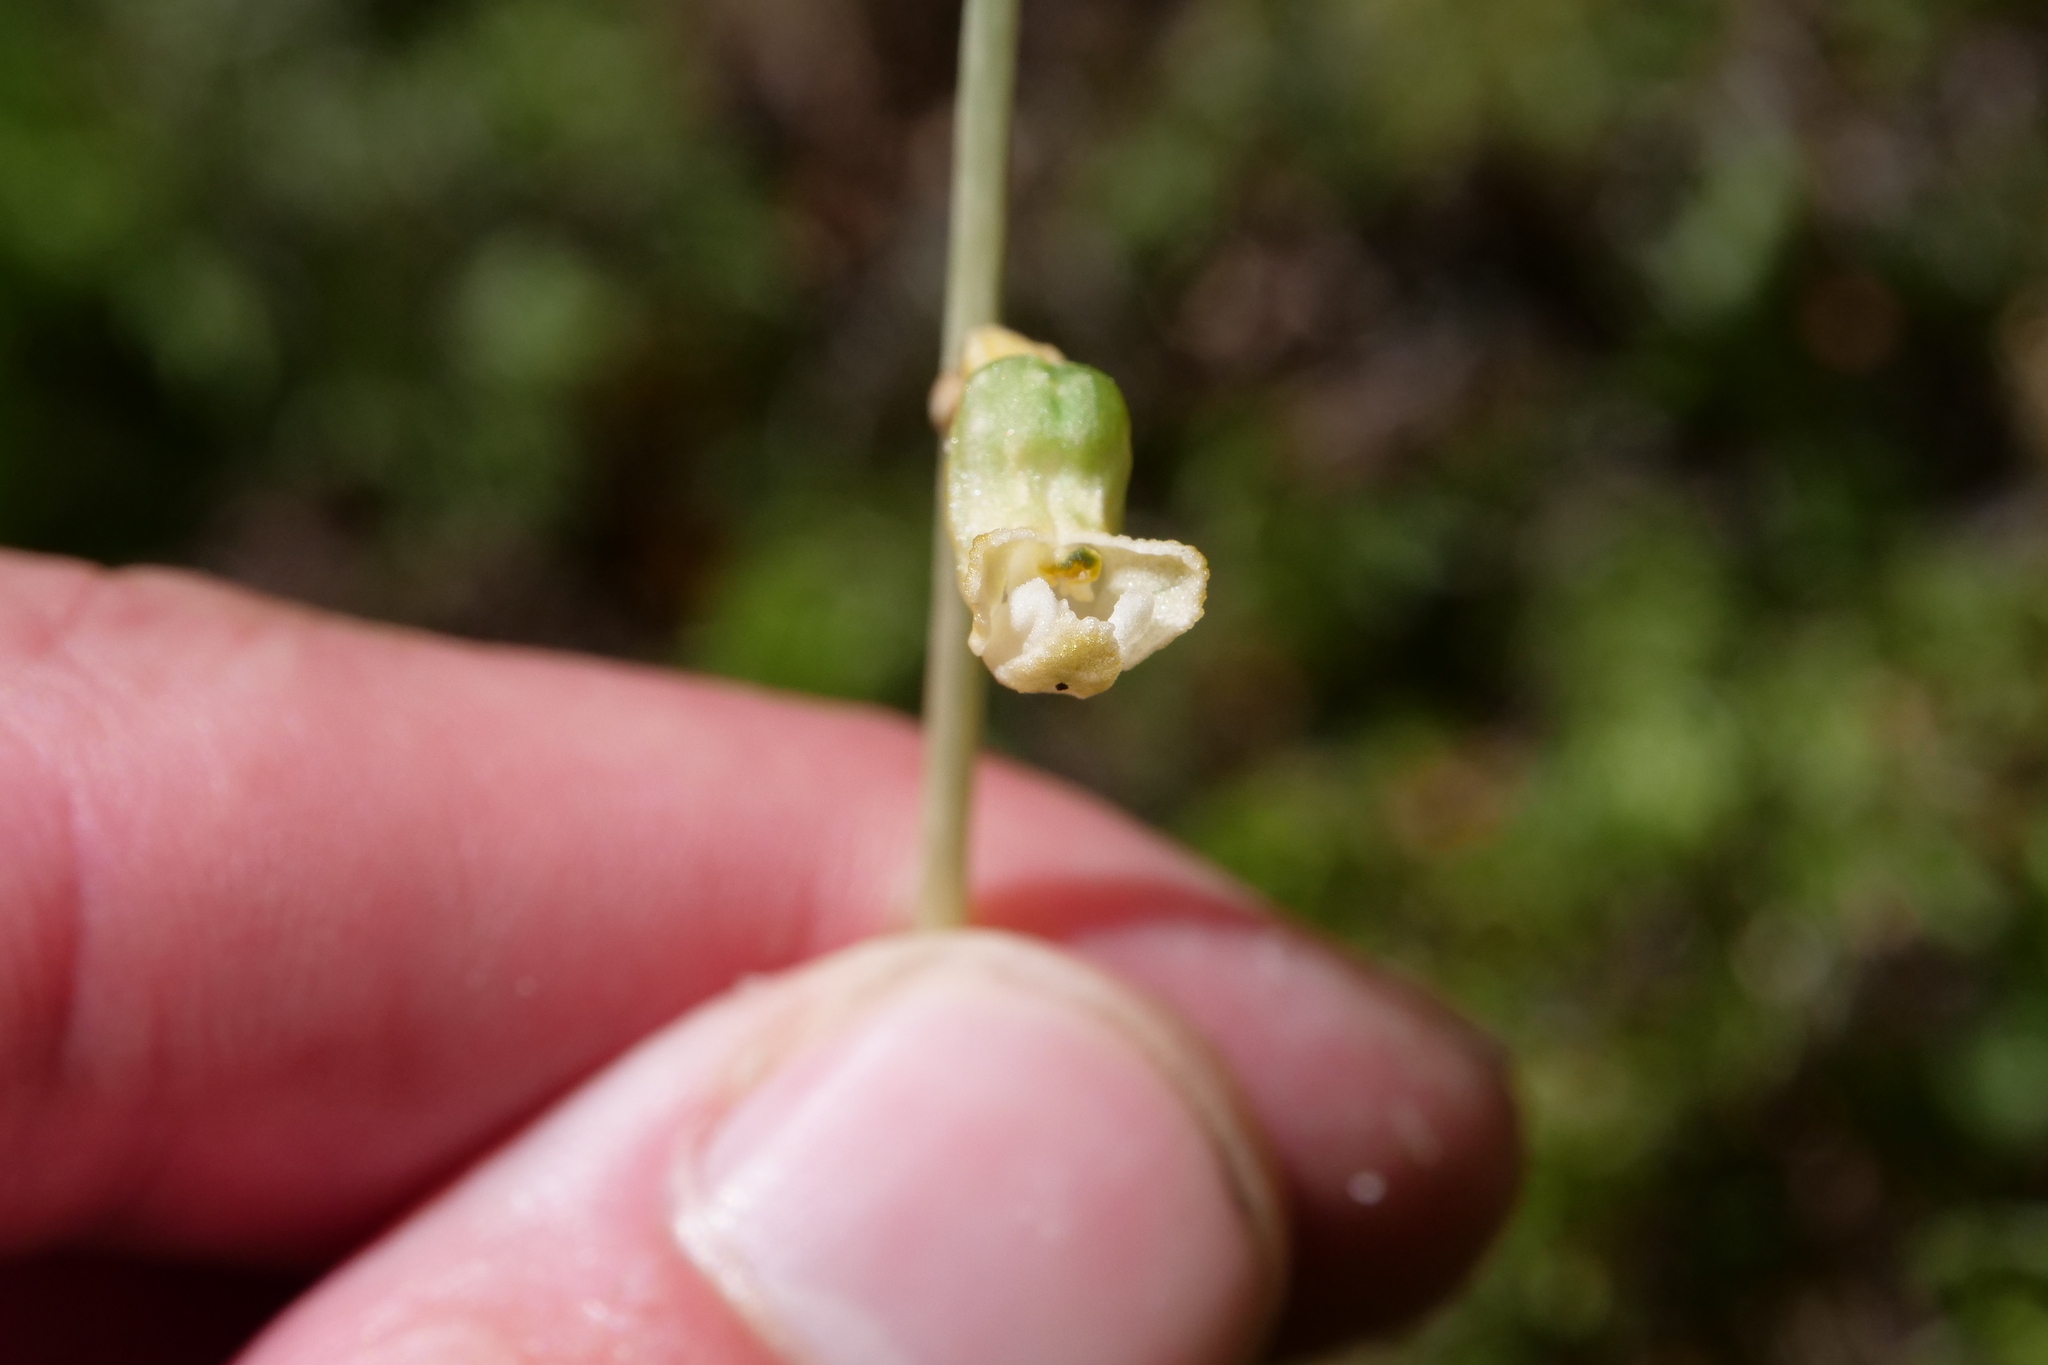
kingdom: Plantae
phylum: Tracheophyta
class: Liliopsida
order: Asparagales
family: Orchidaceae
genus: Gastrodia
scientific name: Gastrodia cunninghamii
